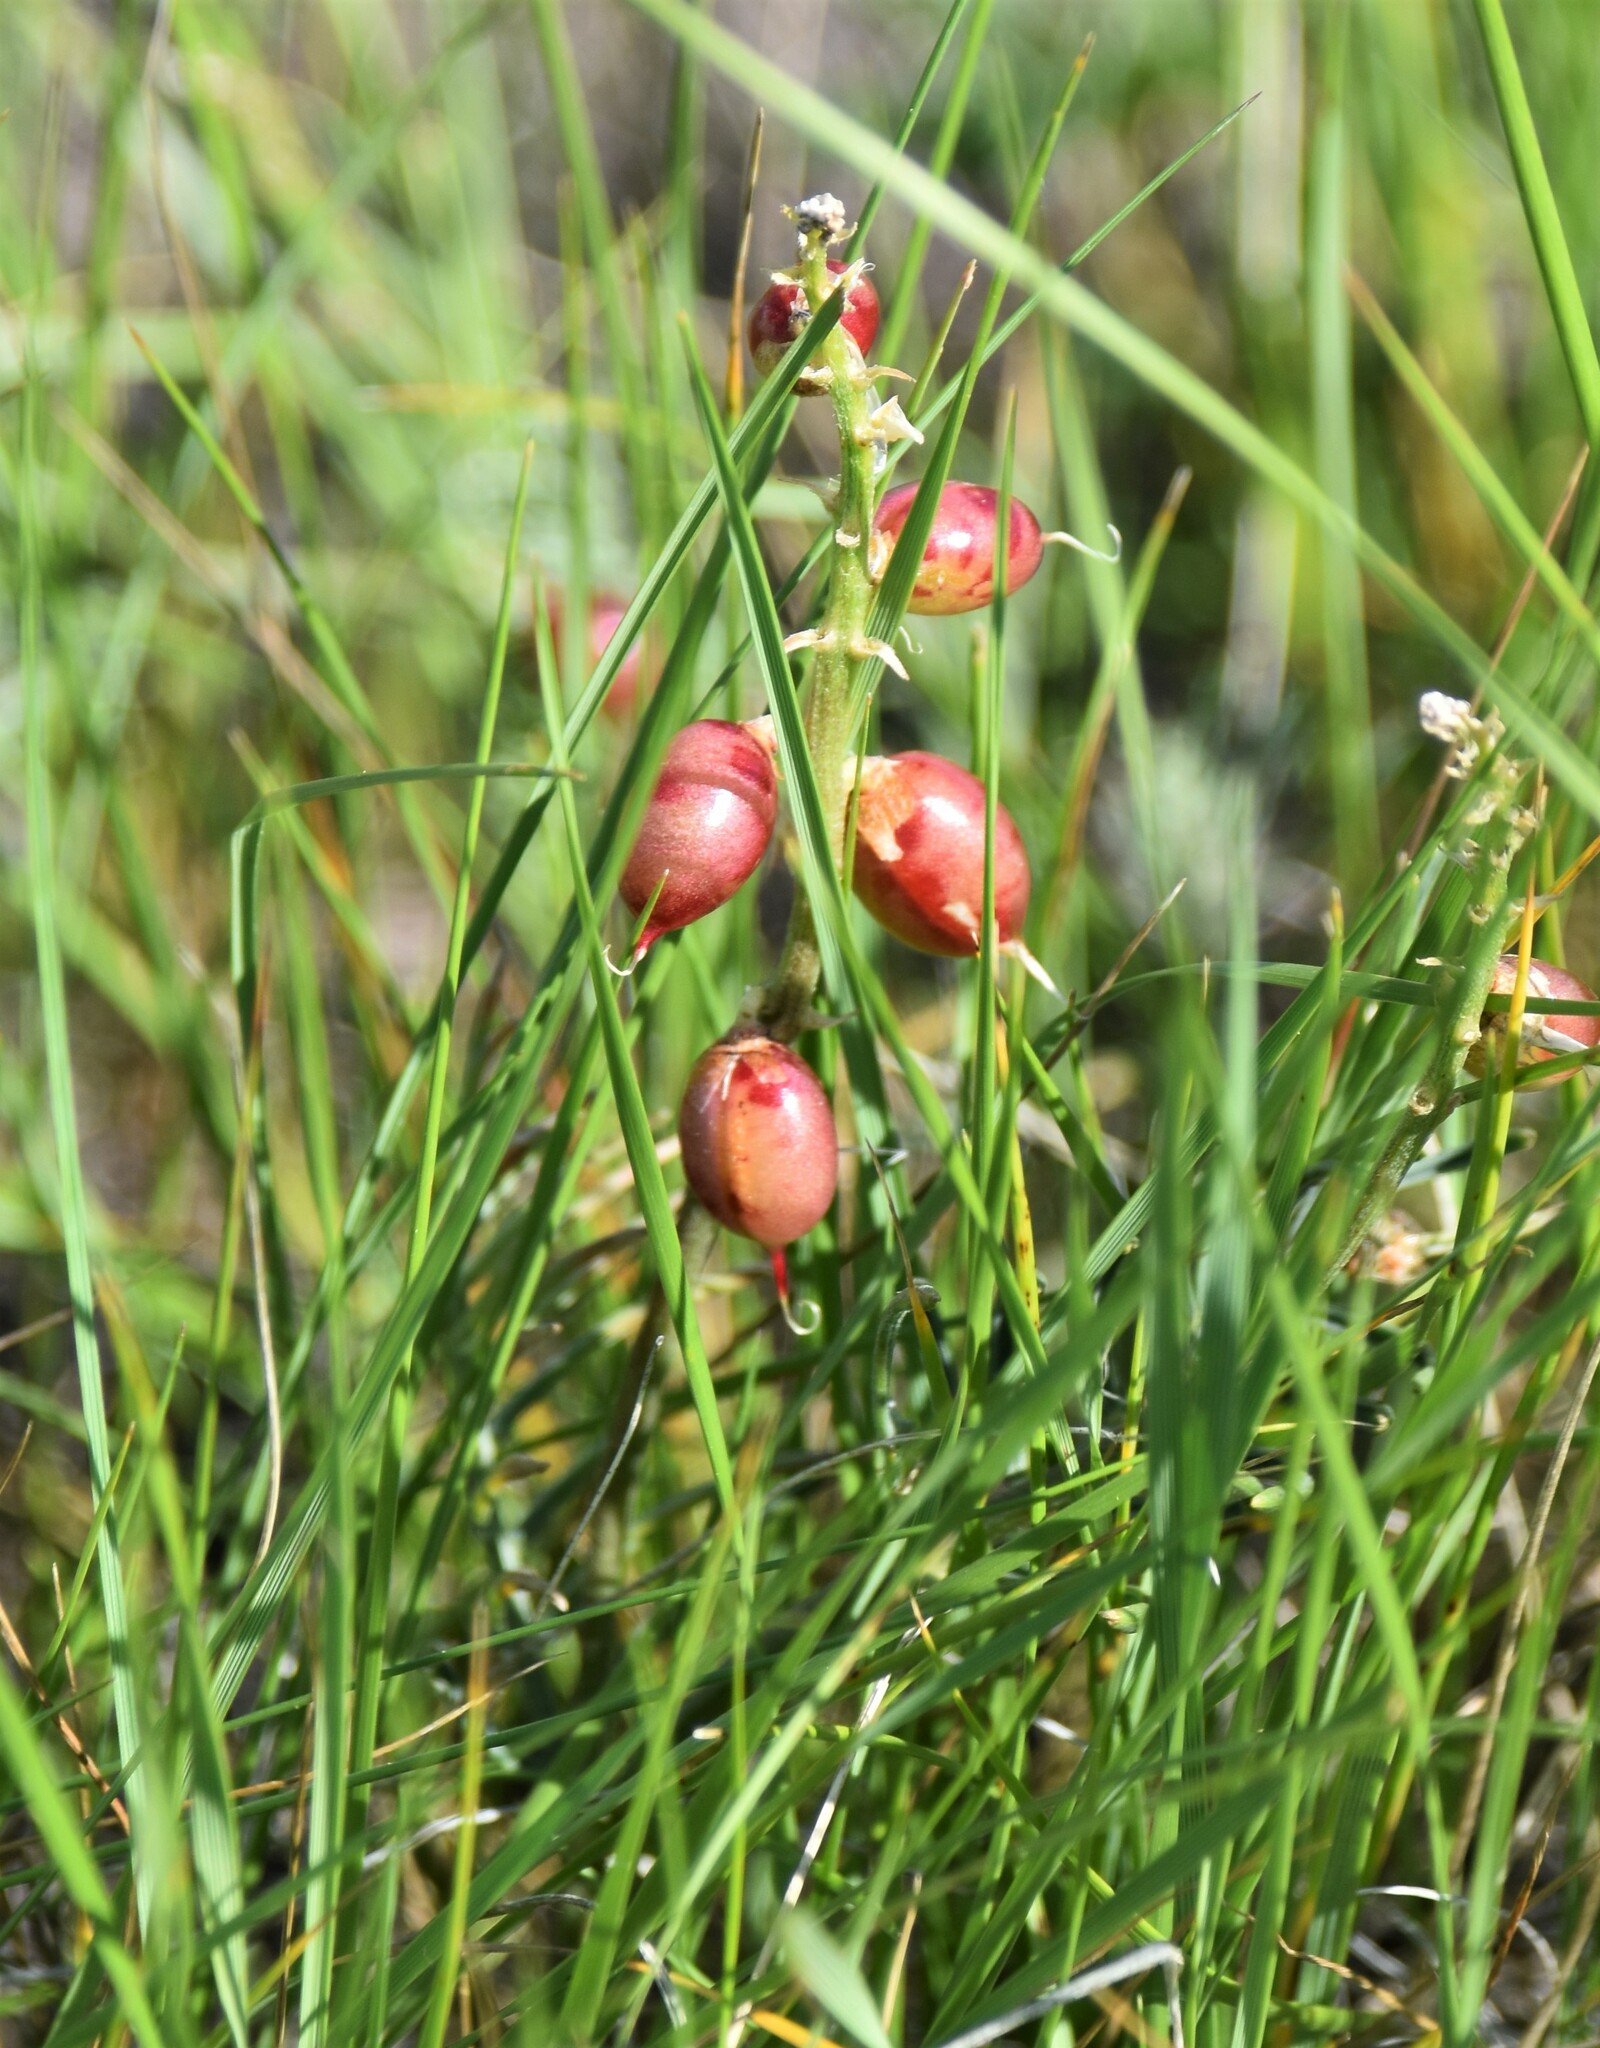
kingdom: Plantae
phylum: Tracheophyta
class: Magnoliopsida
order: Fabales
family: Fabaceae
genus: Astragalus
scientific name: Astragalus pectinatus
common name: Tine-leaf milk-vetch
